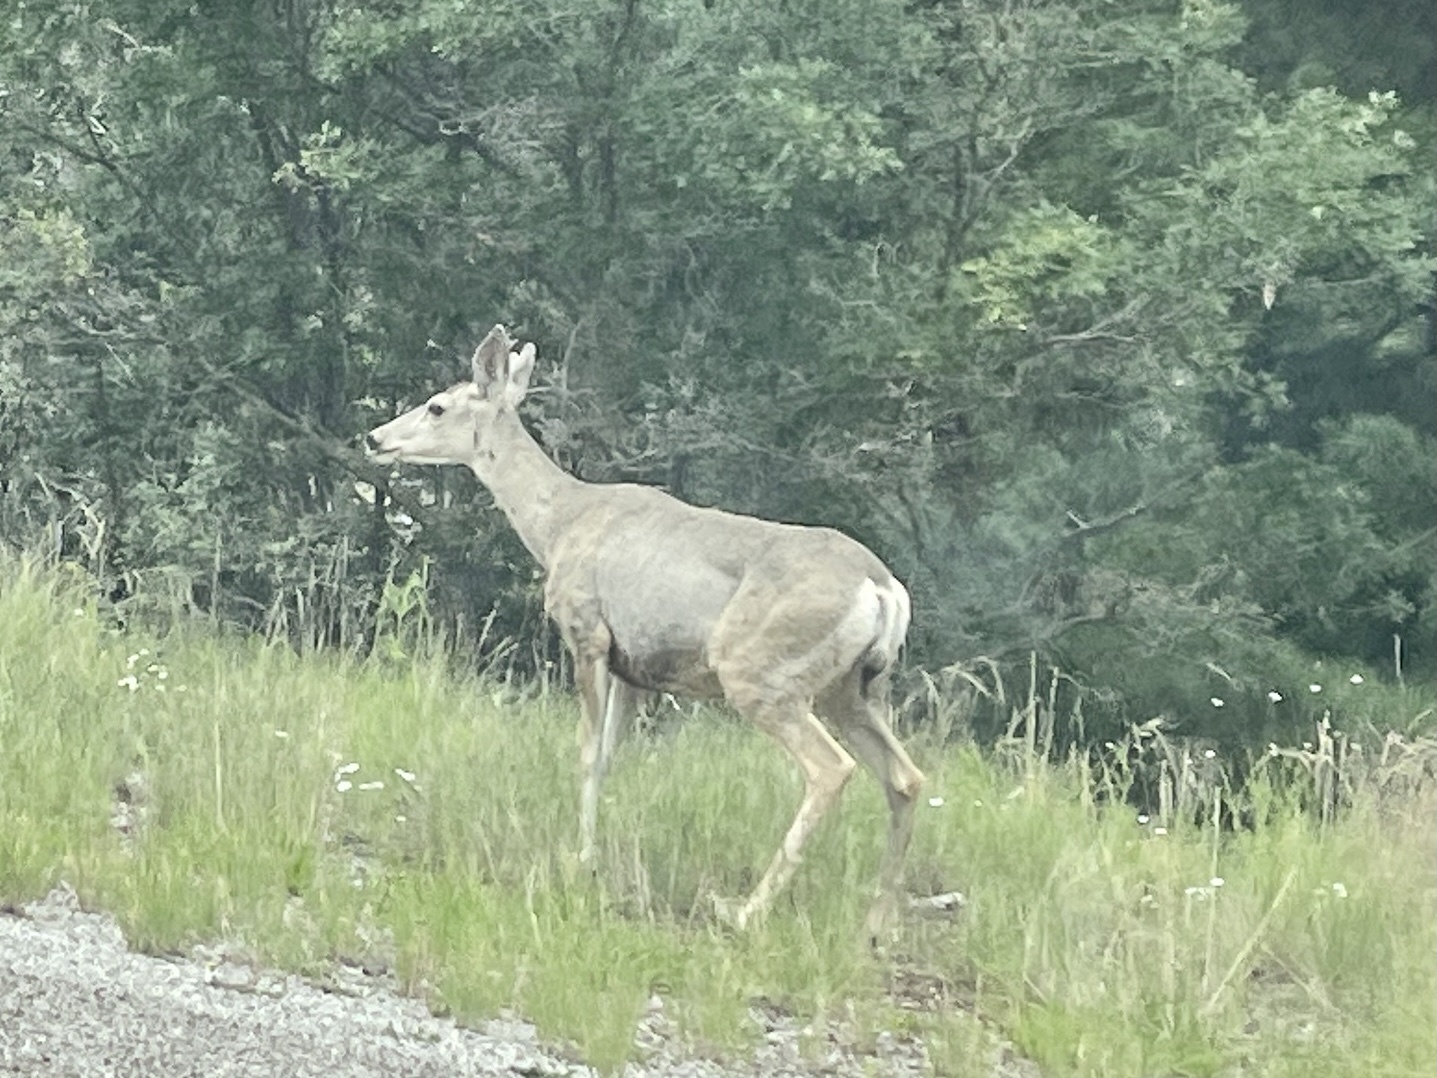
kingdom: Animalia
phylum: Chordata
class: Mammalia
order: Artiodactyla
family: Cervidae
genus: Odocoileus
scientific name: Odocoileus hemionus
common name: Mule deer
